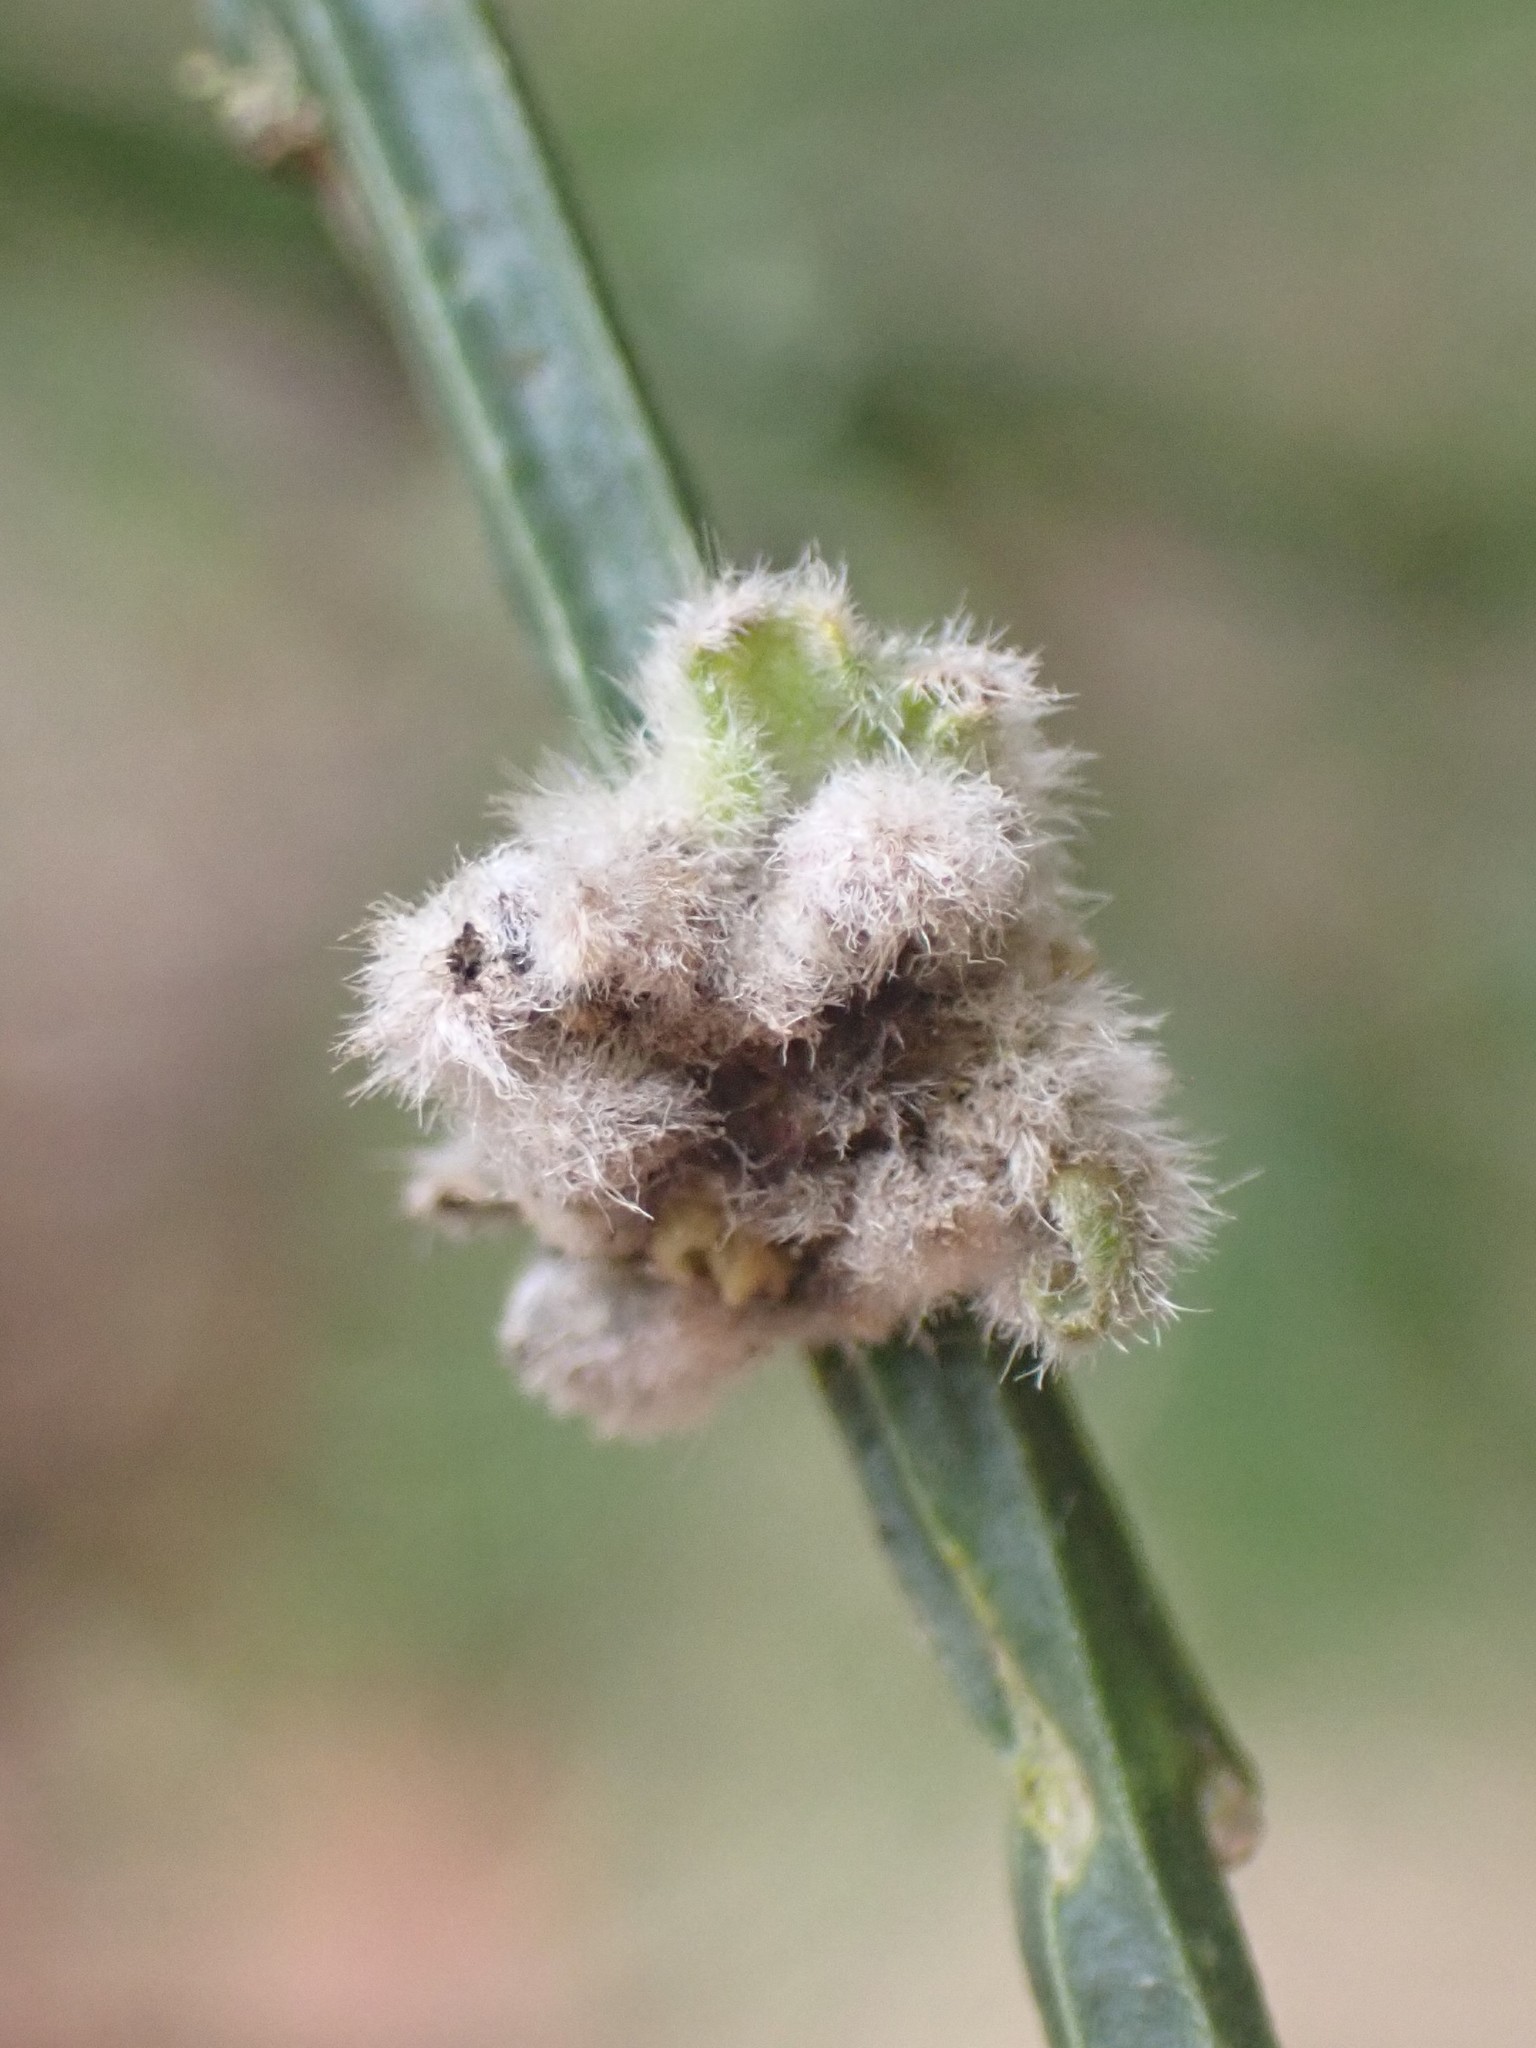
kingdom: Animalia
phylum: Arthropoda
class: Arachnida
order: Trombidiformes
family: Eriophyidae
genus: Aceria
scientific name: Aceria genistae
